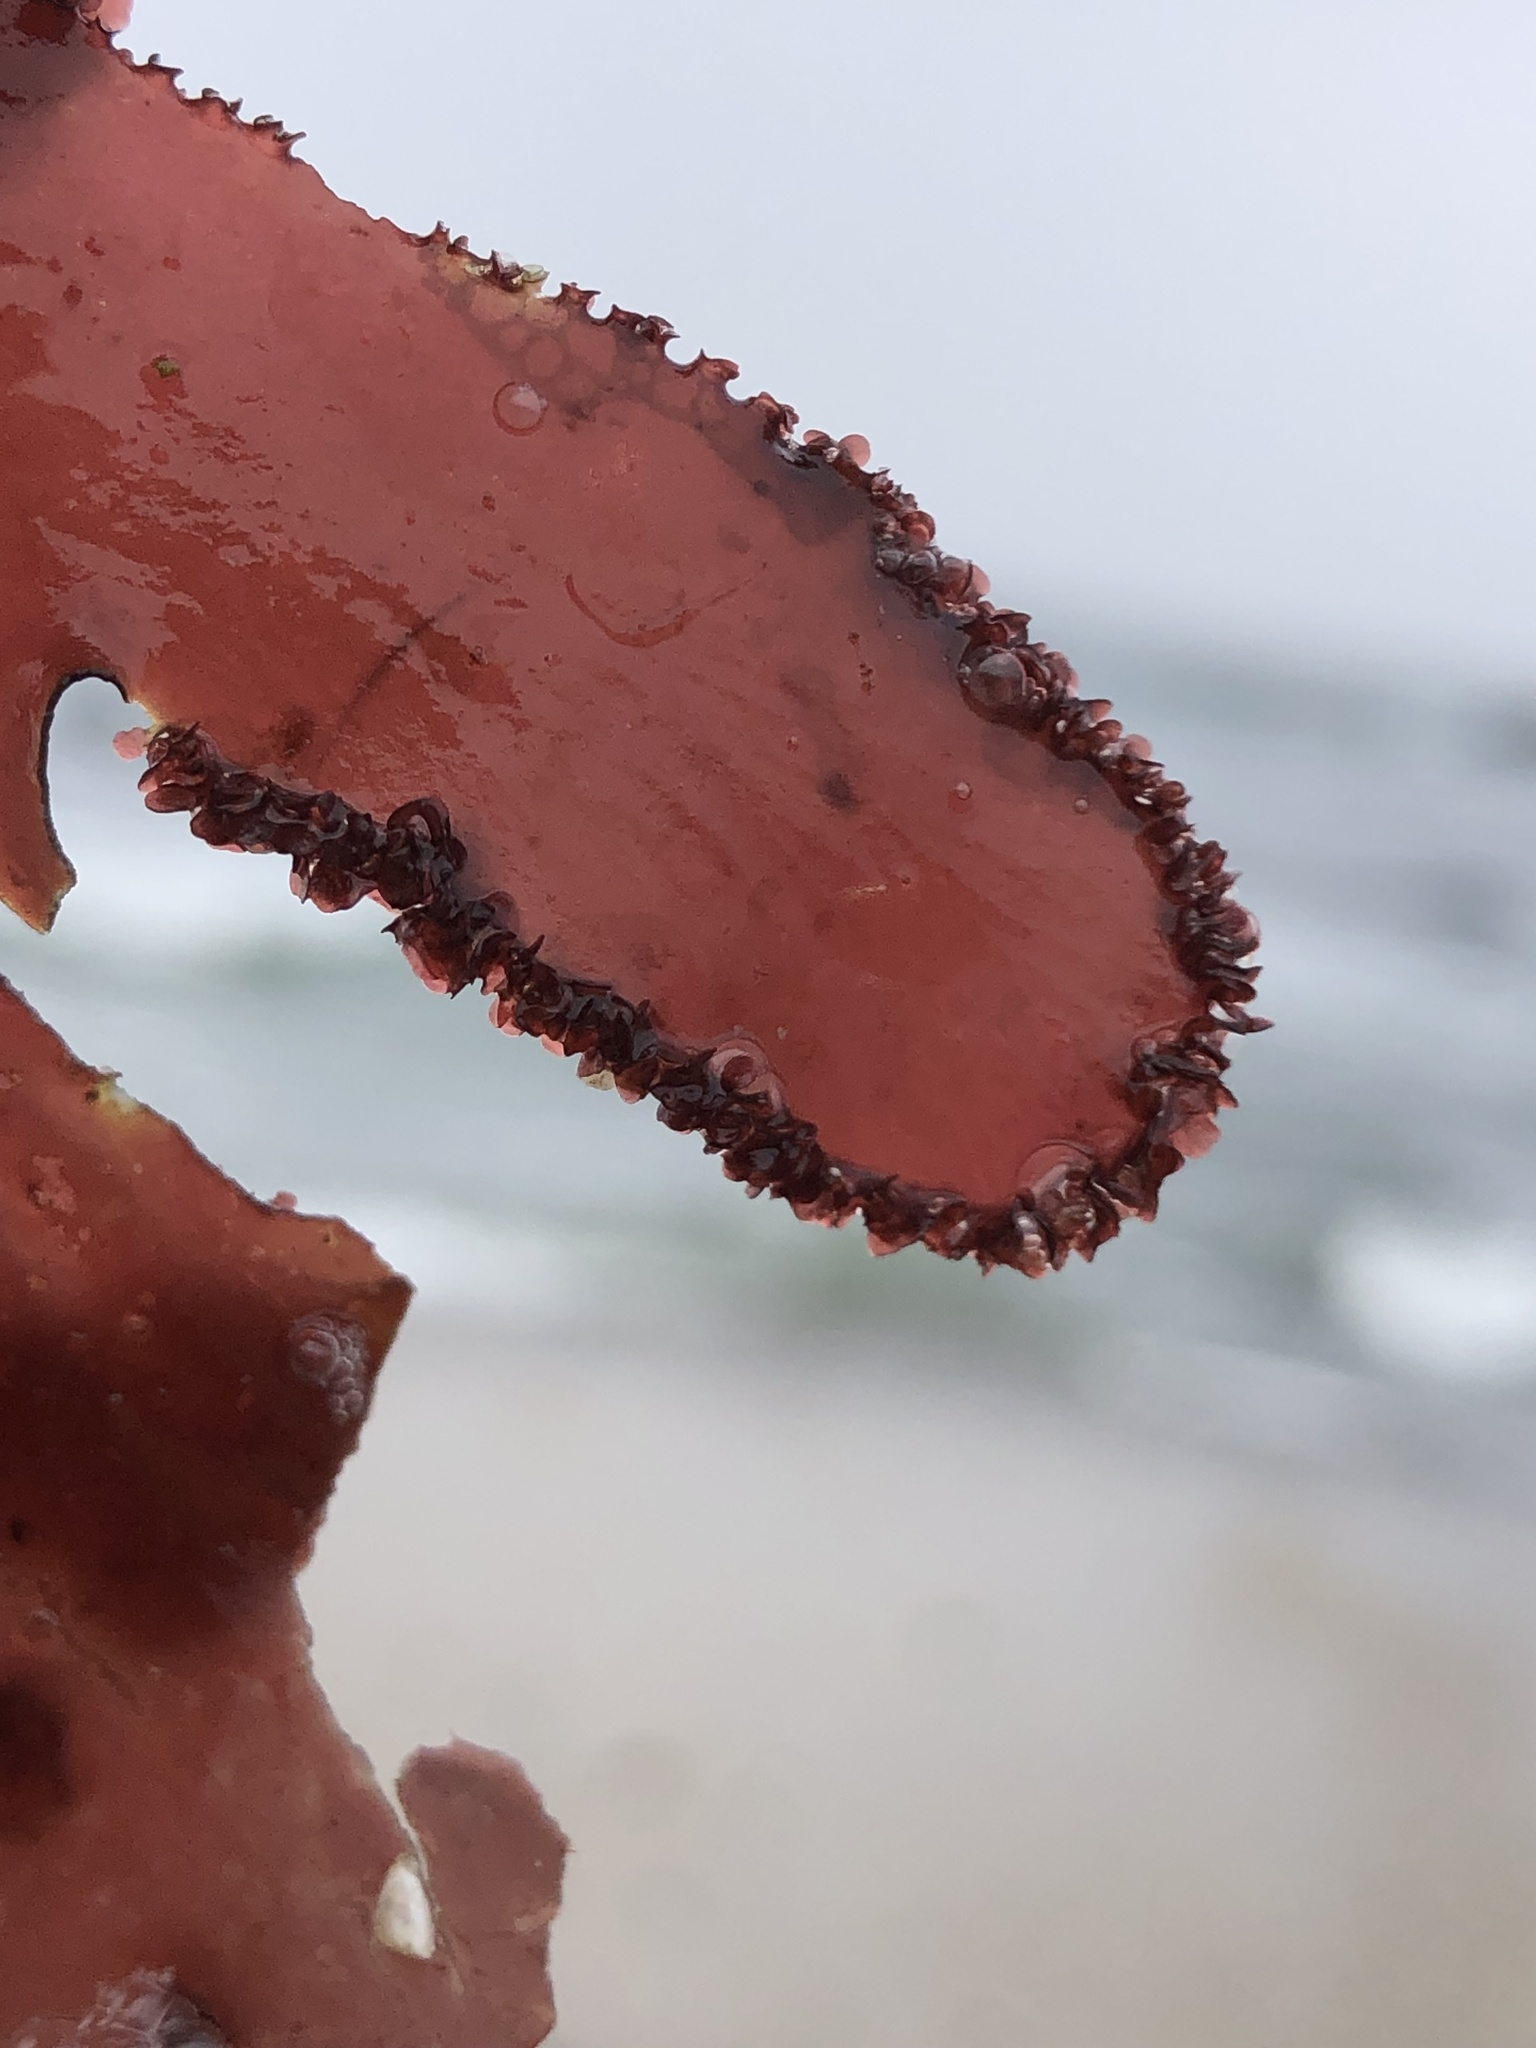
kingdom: Plantae
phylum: Rhodophyta
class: Florideophyceae
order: Ceramiales
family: Delesseriaceae
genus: Cryptopleura
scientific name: Cryptopleura ruprechtiana
